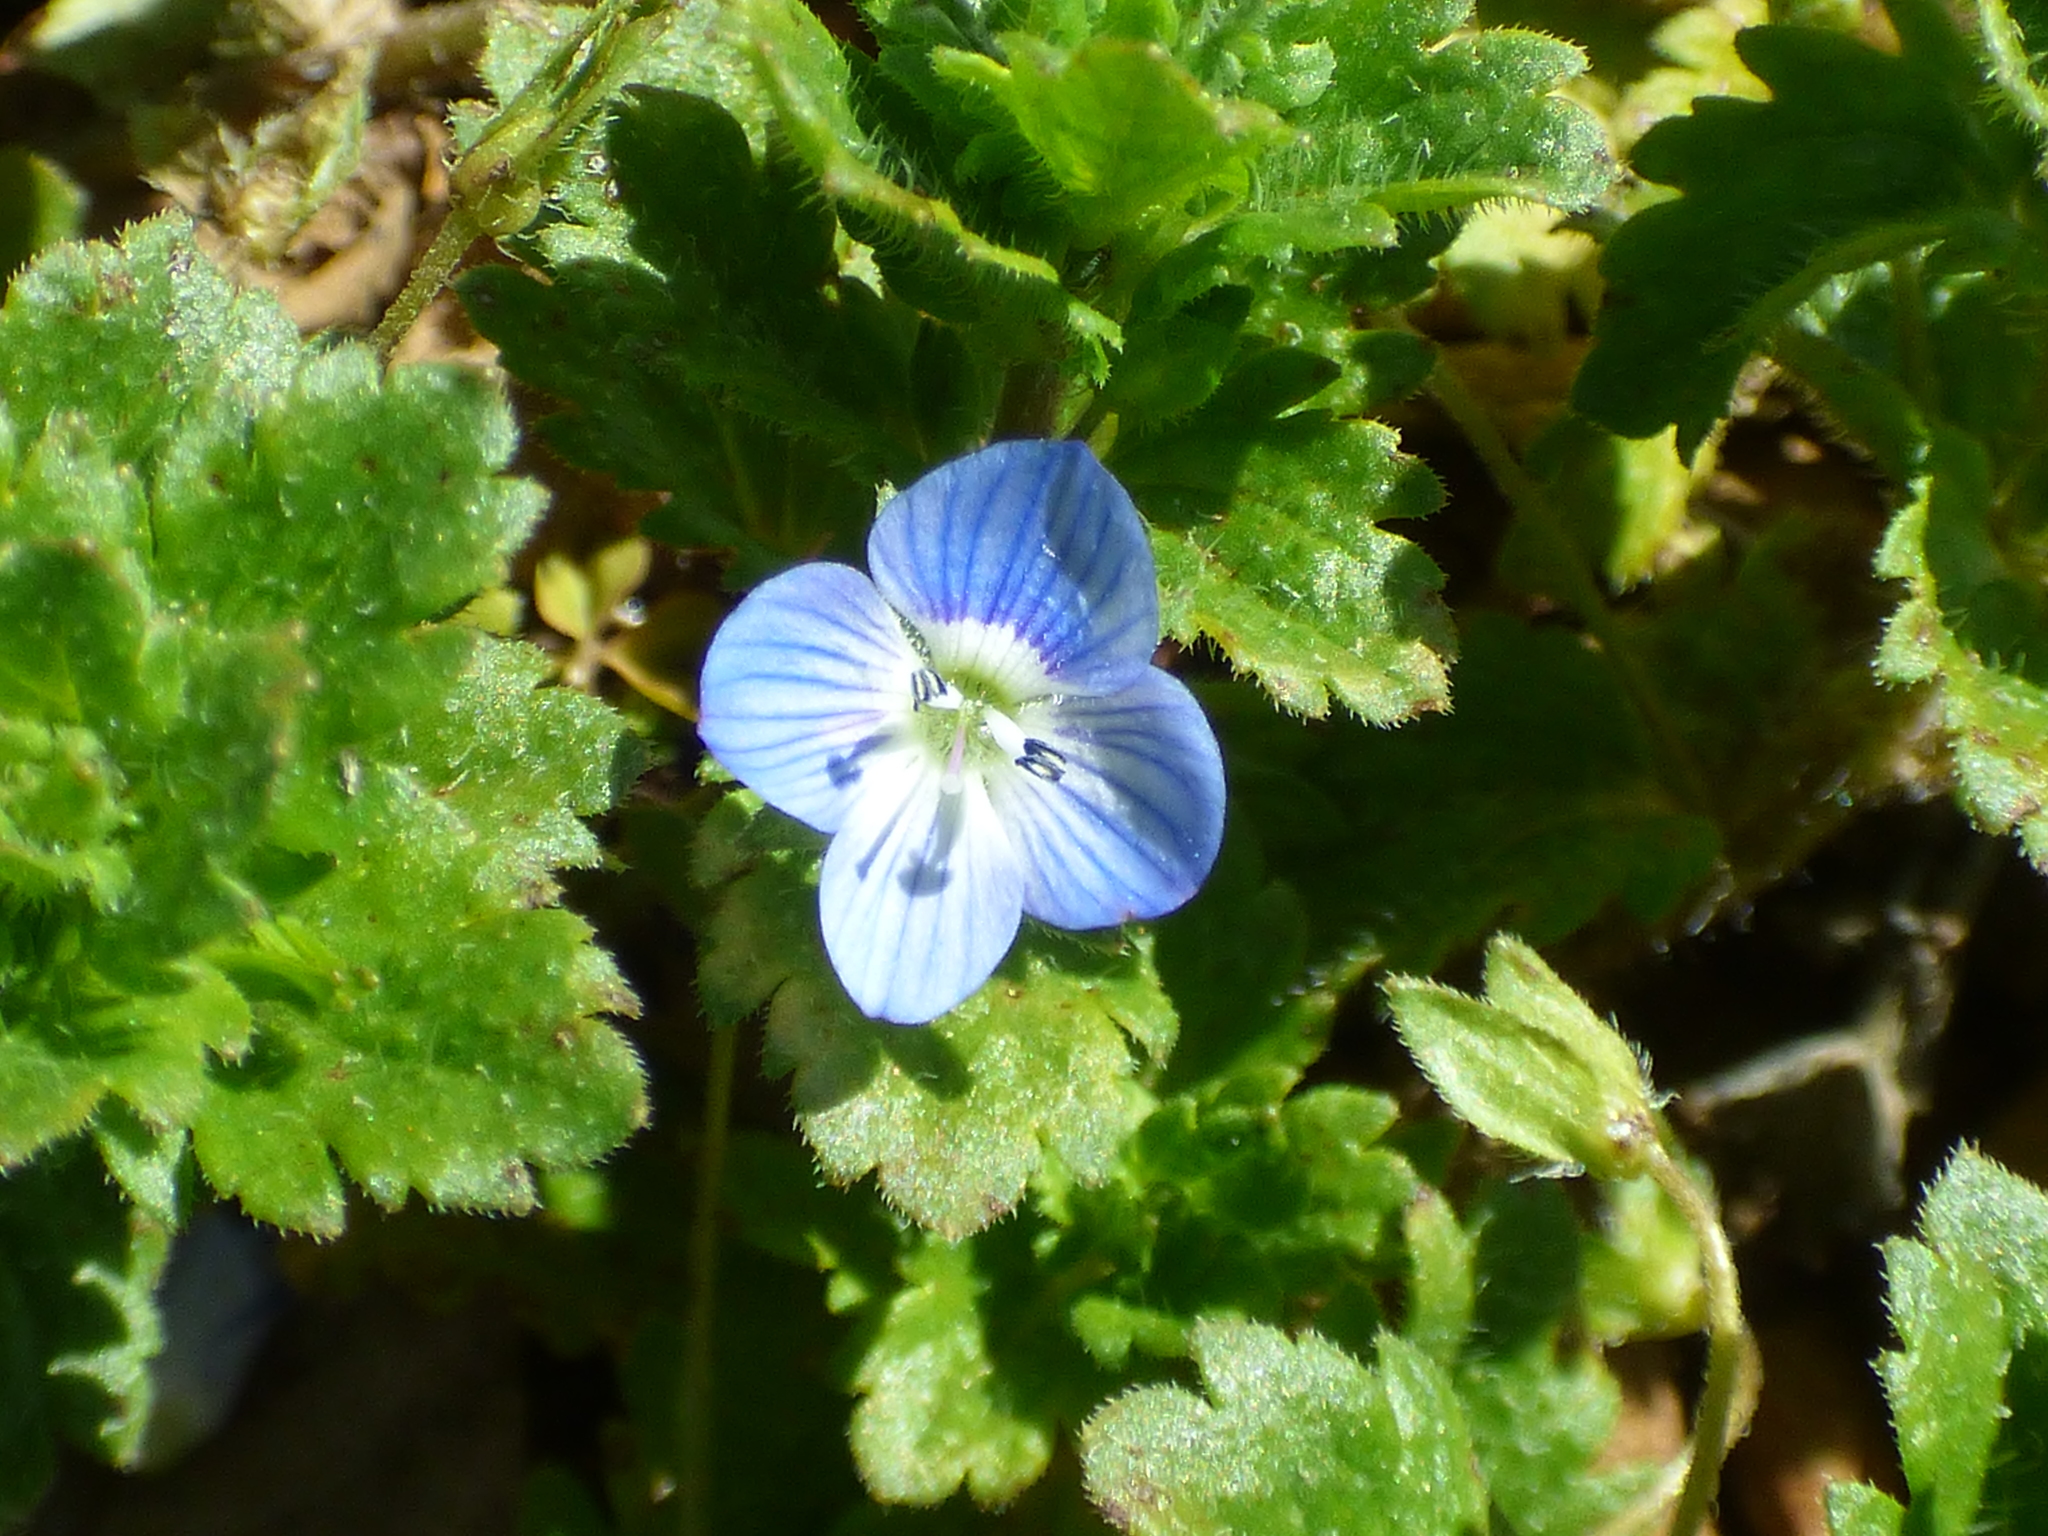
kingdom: Plantae
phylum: Tracheophyta
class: Magnoliopsida
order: Lamiales
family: Plantaginaceae
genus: Veronica
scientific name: Veronica persica
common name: Common field-speedwell
